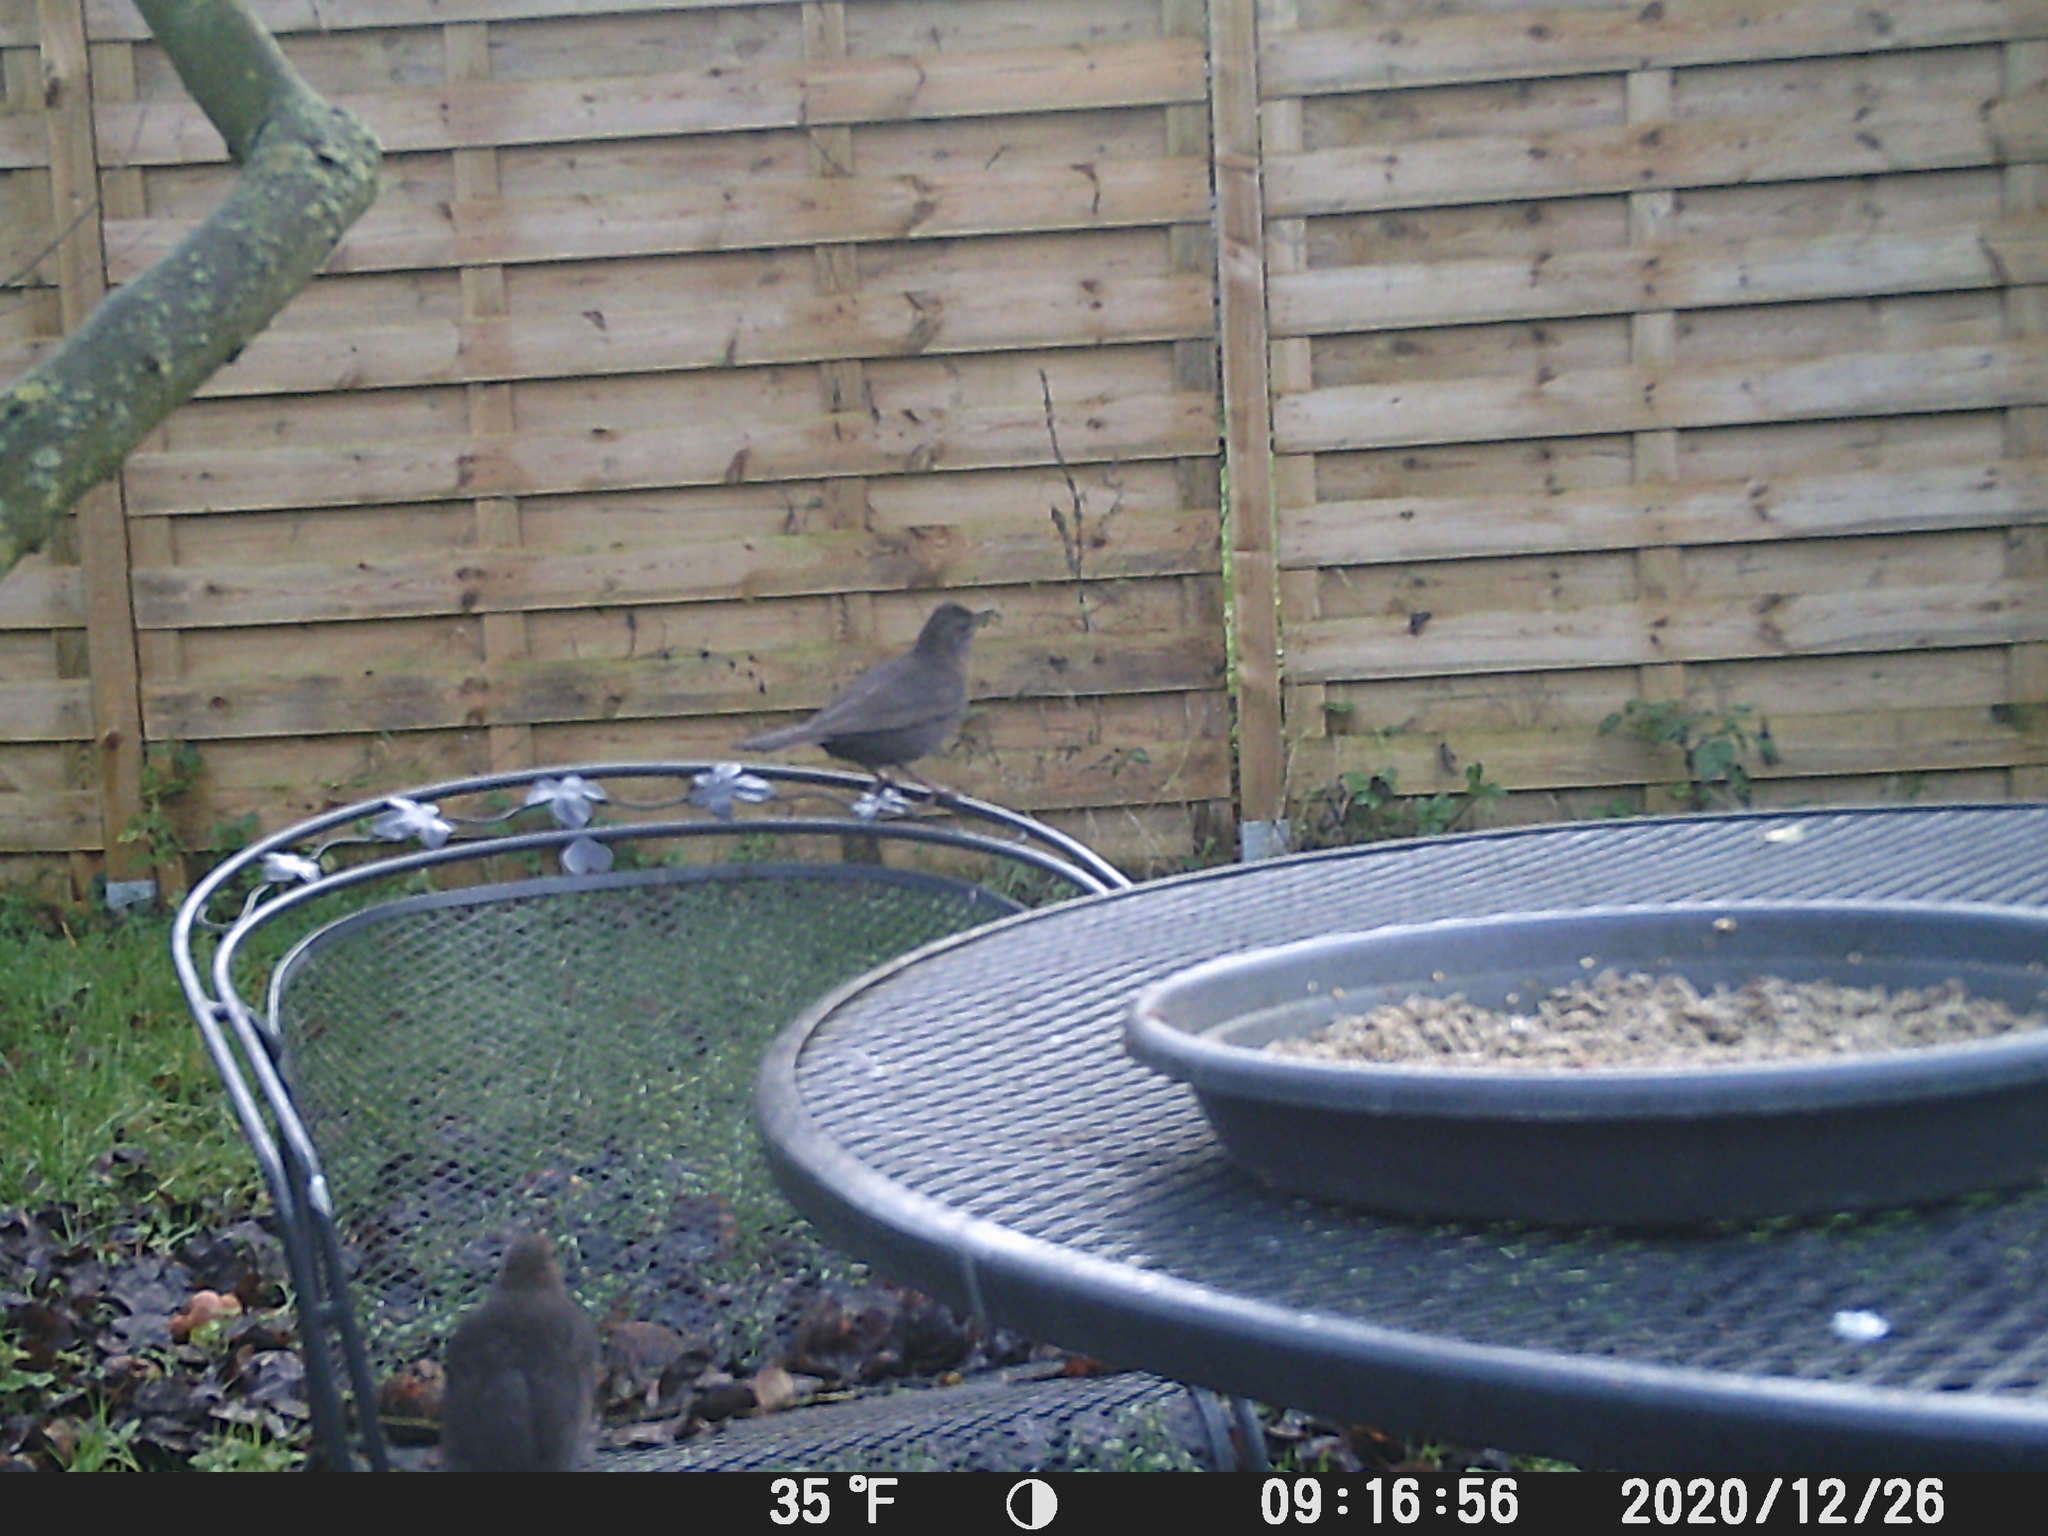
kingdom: Animalia
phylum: Chordata
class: Aves
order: Passeriformes
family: Turdidae
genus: Turdus
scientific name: Turdus merula
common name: Common blackbird
